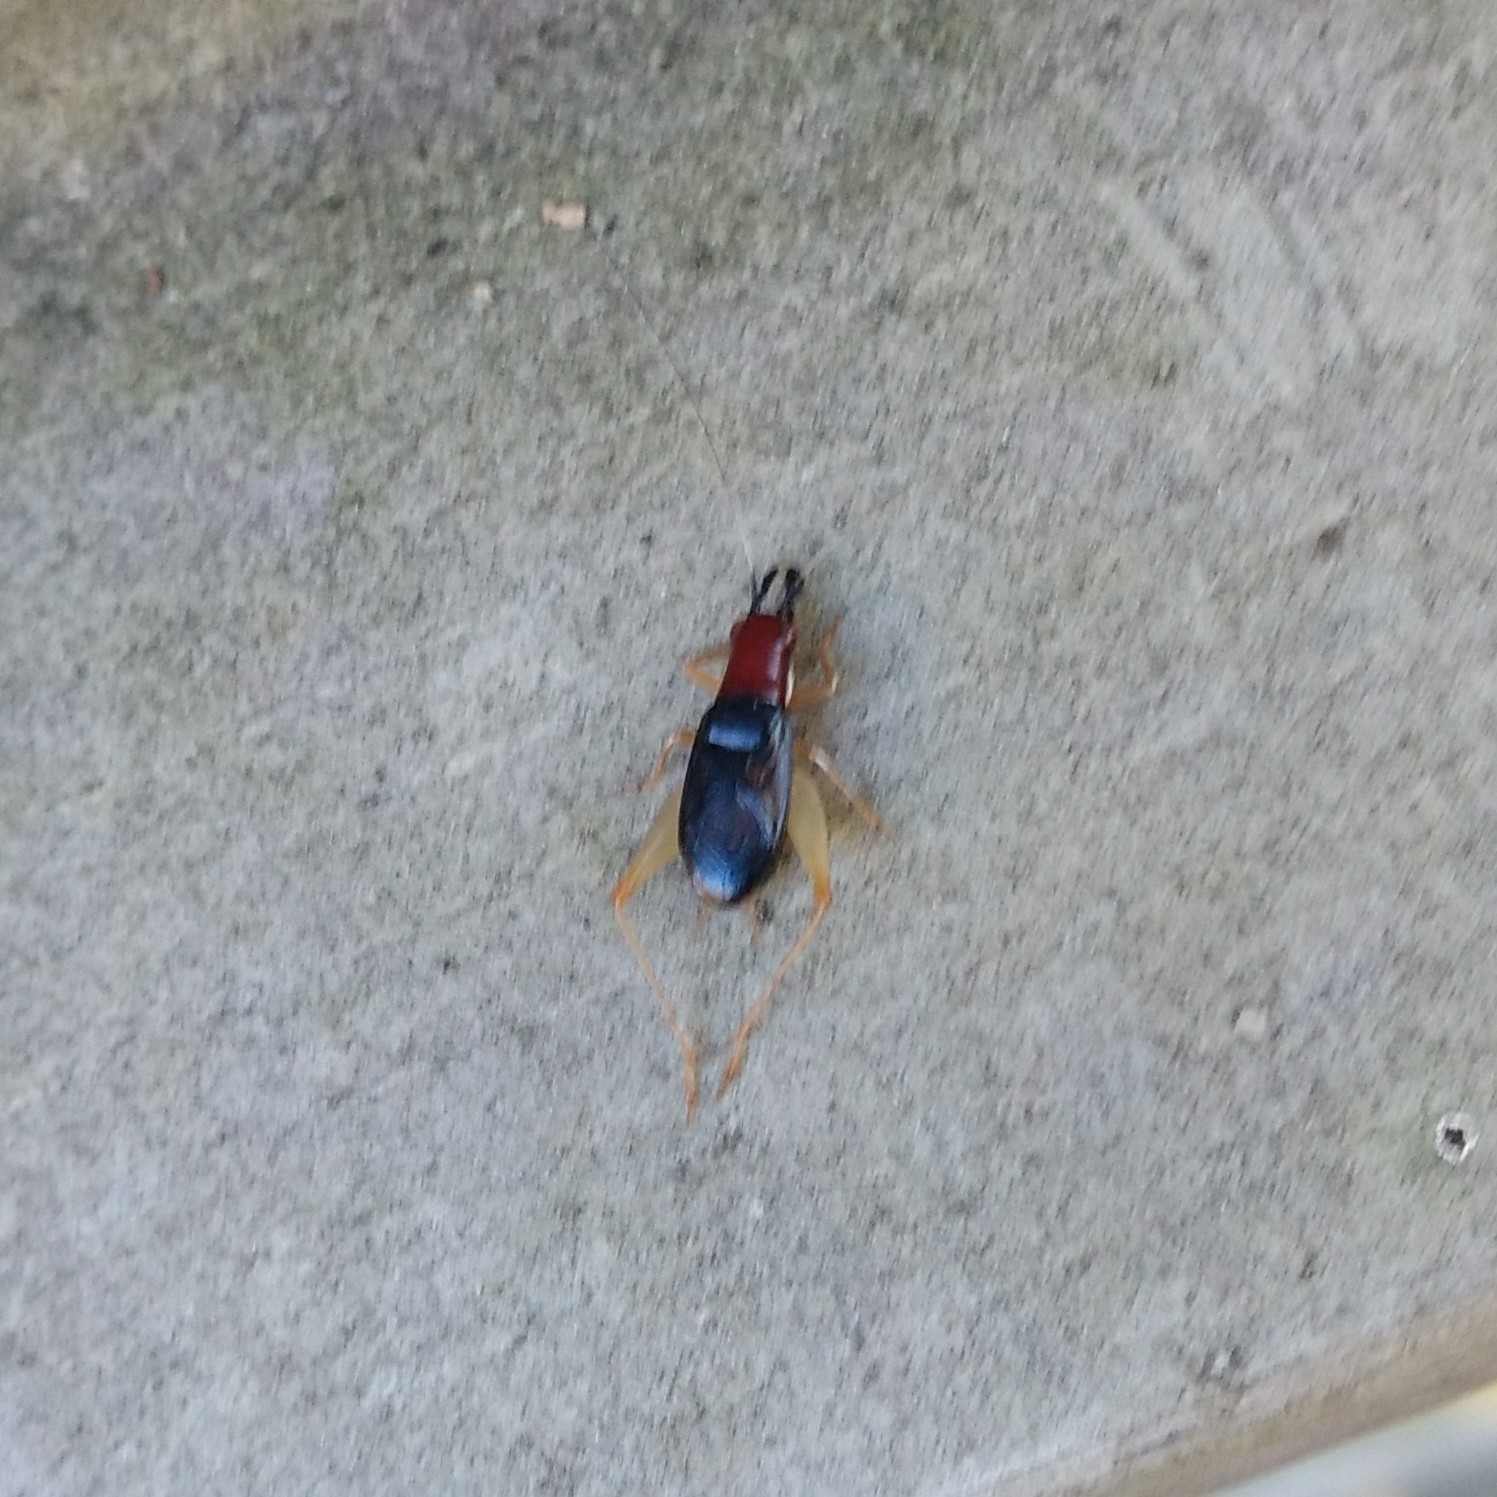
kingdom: Animalia
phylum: Arthropoda
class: Insecta
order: Orthoptera
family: Trigonidiidae
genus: Phyllopalpus
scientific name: Phyllopalpus pulchellus
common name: Handsome trig
